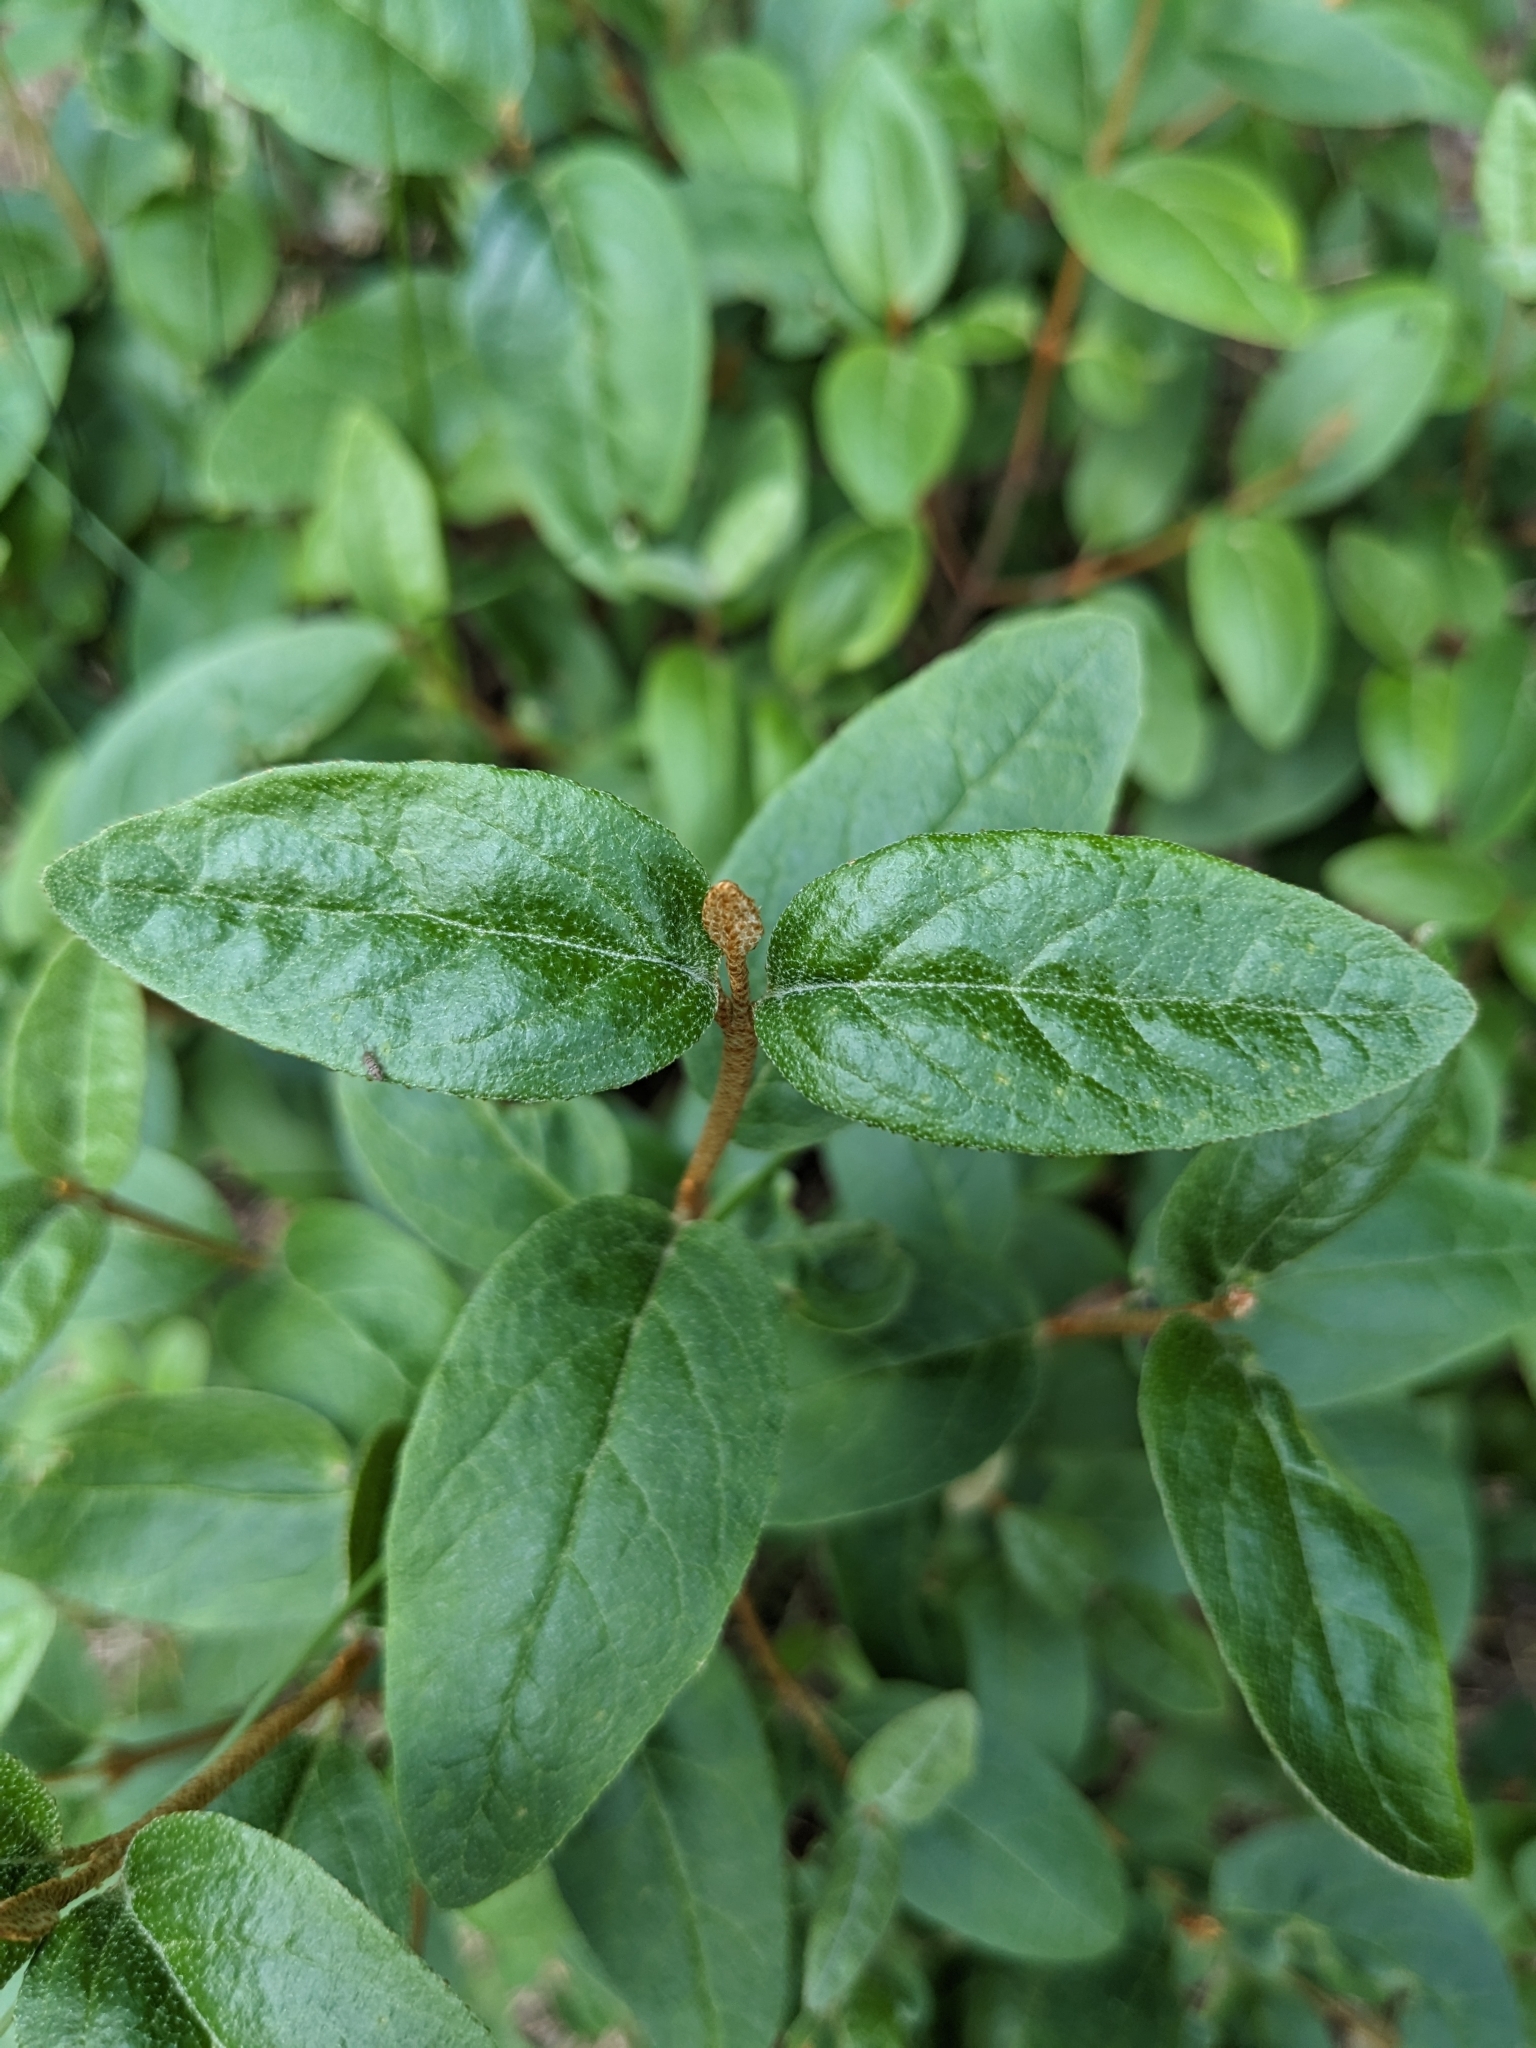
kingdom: Plantae
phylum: Tracheophyta
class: Magnoliopsida
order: Rosales
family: Elaeagnaceae
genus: Shepherdia
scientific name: Shepherdia canadensis
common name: Soapberry
